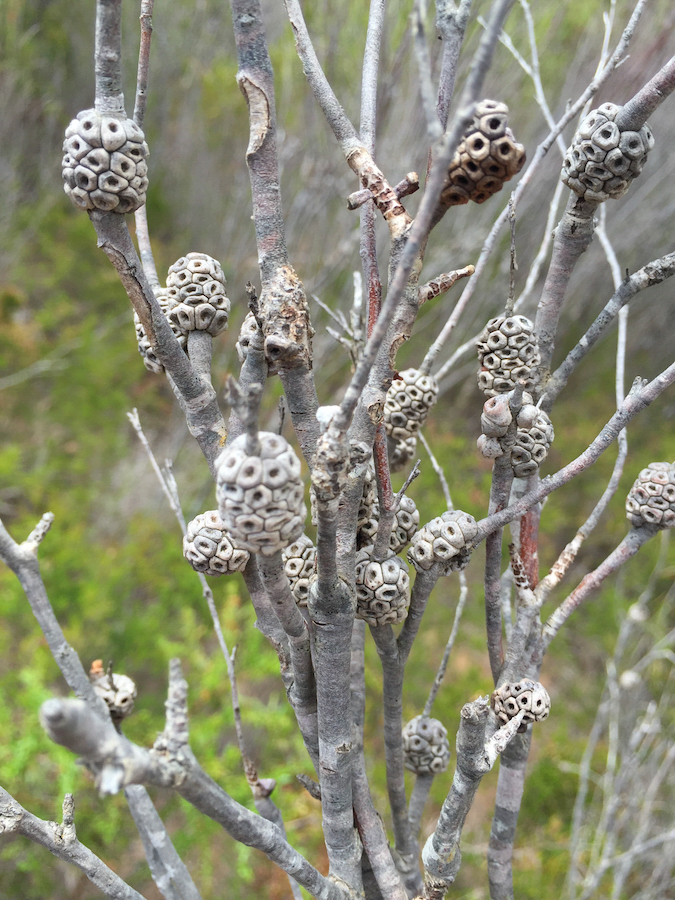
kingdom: Plantae
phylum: Tracheophyta
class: Magnoliopsida
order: Myrtales
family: Myrtaceae
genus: Melaleuca
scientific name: Melaleuca uncinata
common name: Broom honey myrtle
